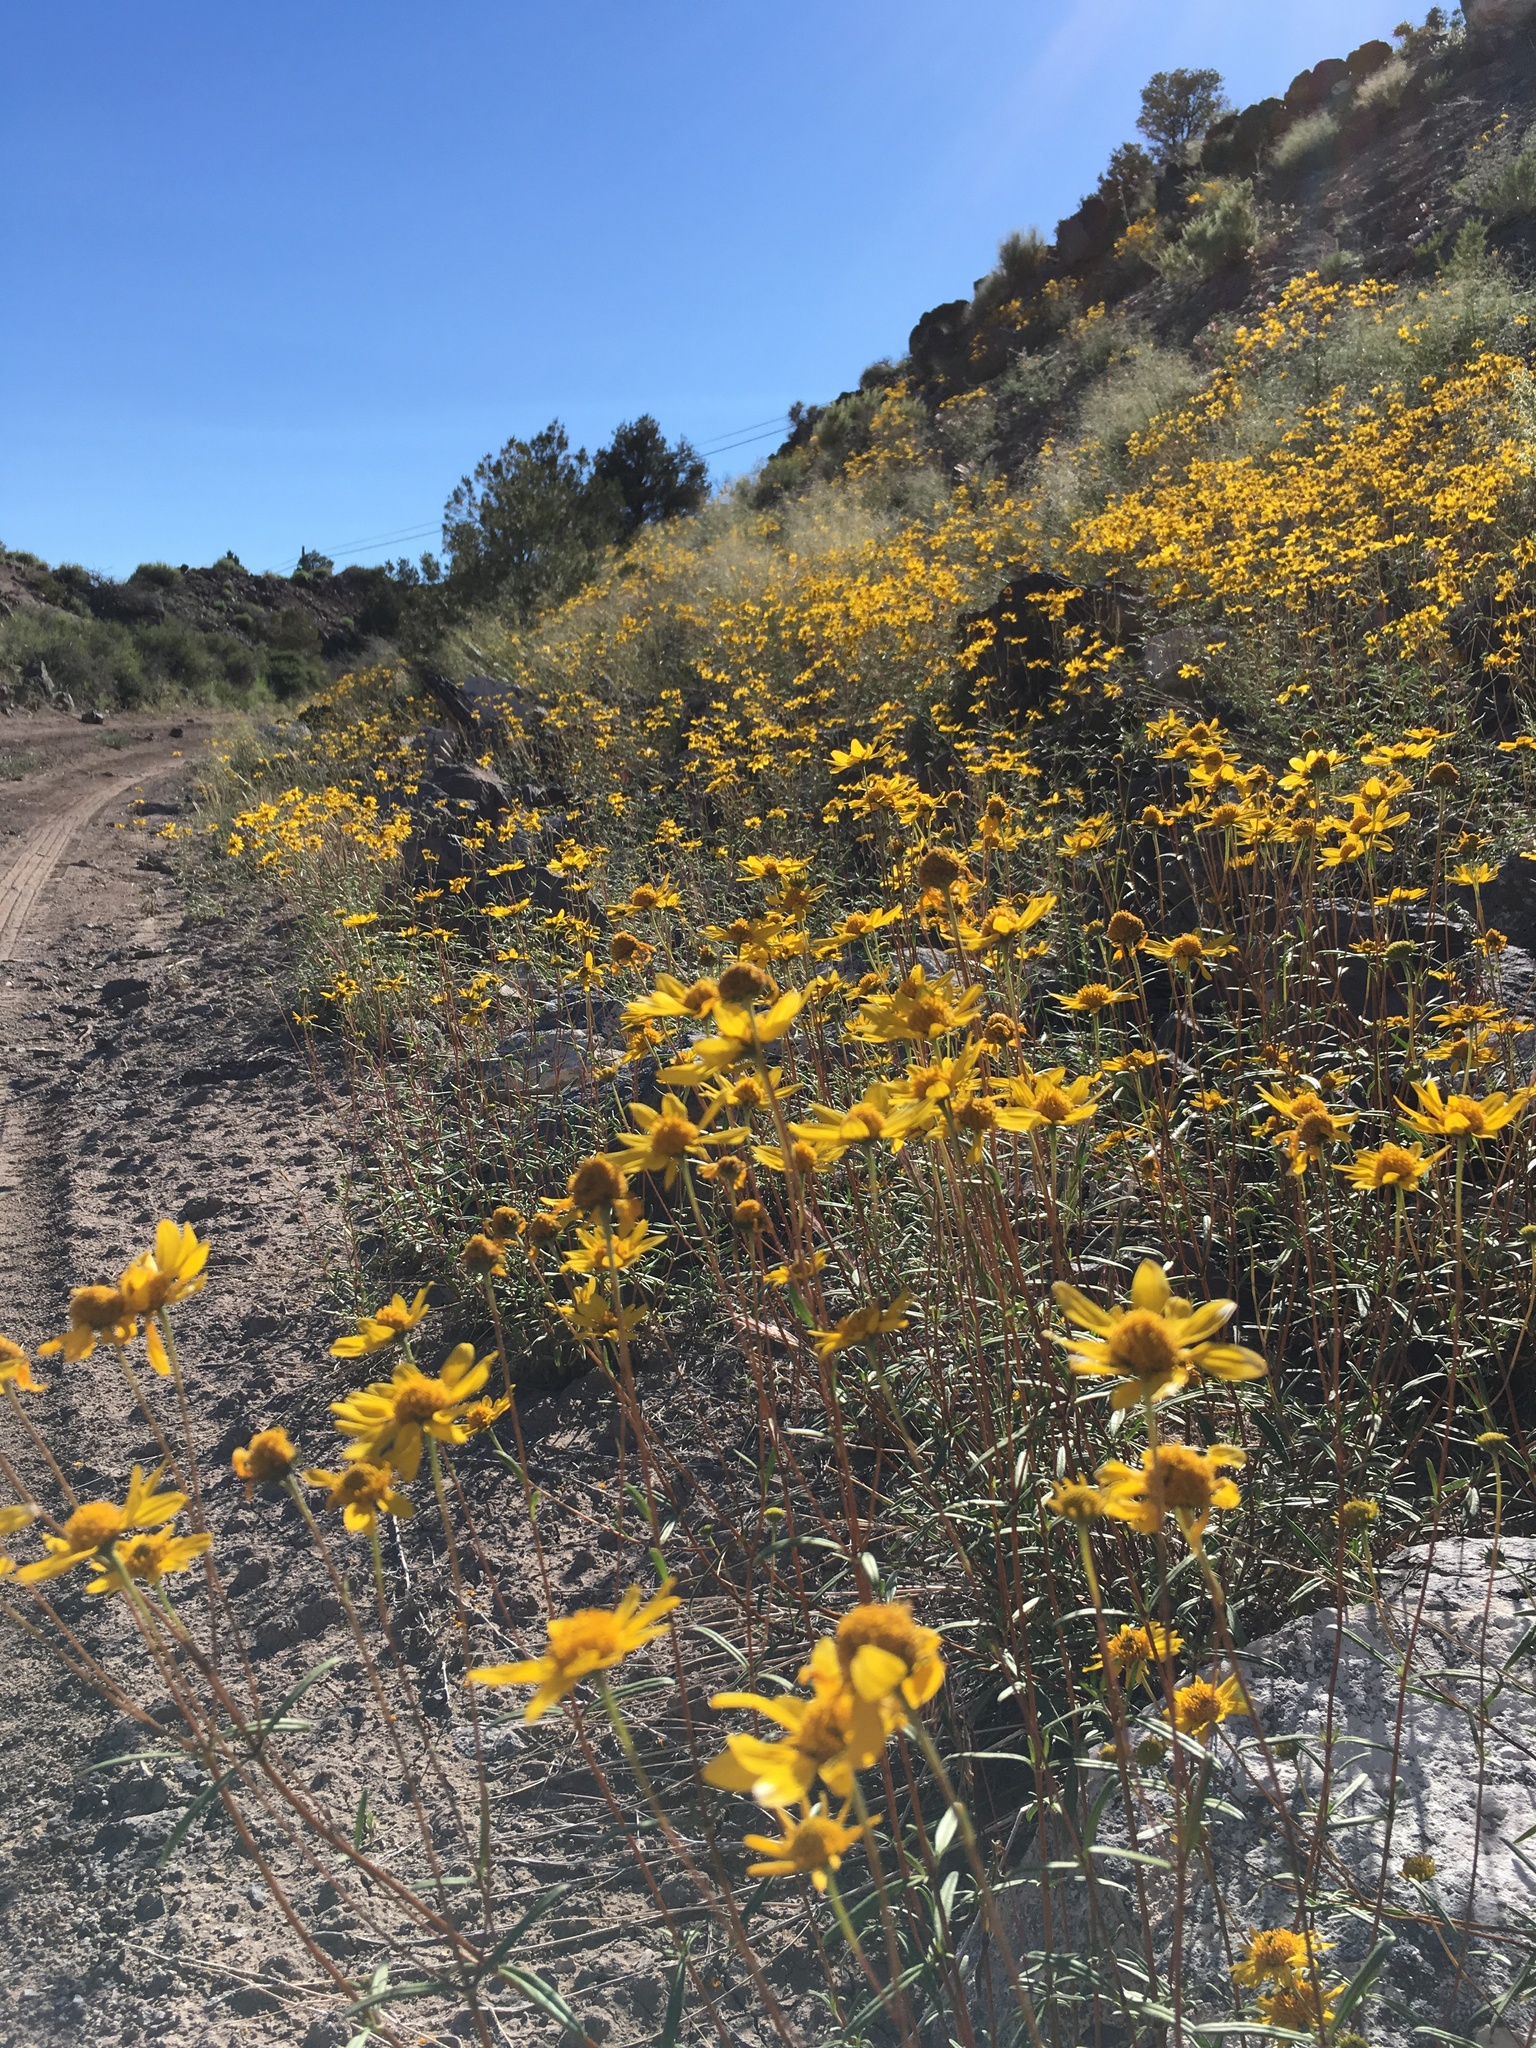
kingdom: Plantae
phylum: Tracheophyta
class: Magnoliopsida
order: Asterales
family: Asteraceae
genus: Heliomeris
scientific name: Heliomeris multiflora
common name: Showy goldeneye
